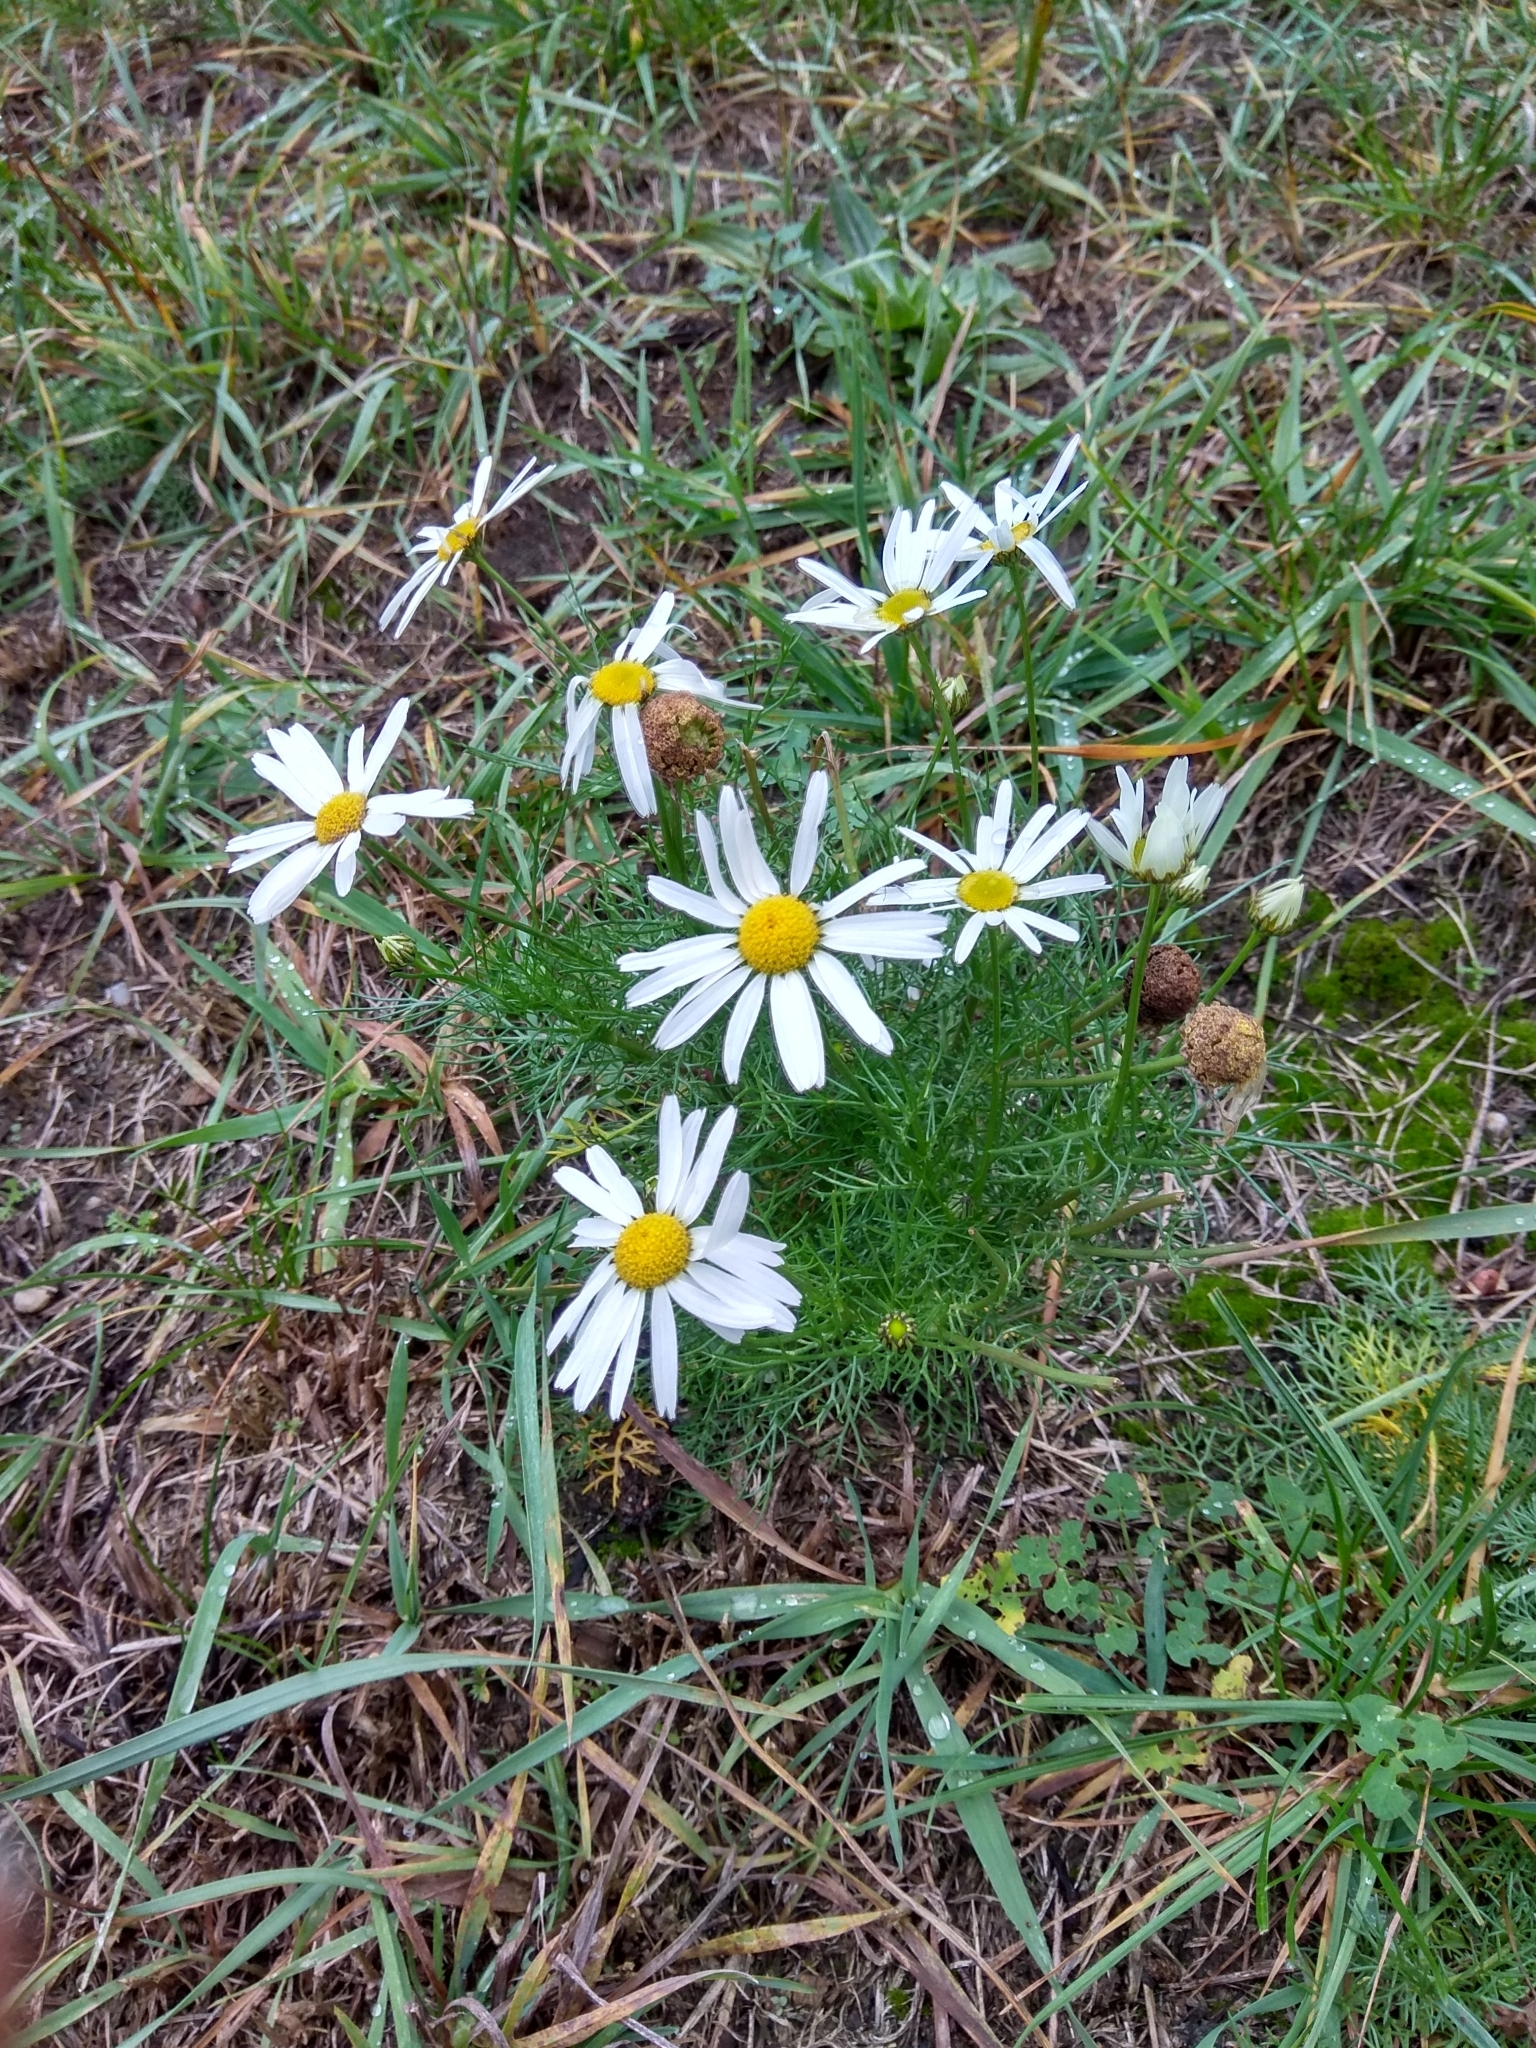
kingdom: Plantae
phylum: Tracheophyta
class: Magnoliopsida
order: Asterales
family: Asteraceae
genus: Tripleurospermum
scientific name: Tripleurospermum inodorum
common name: Scentless mayweed
